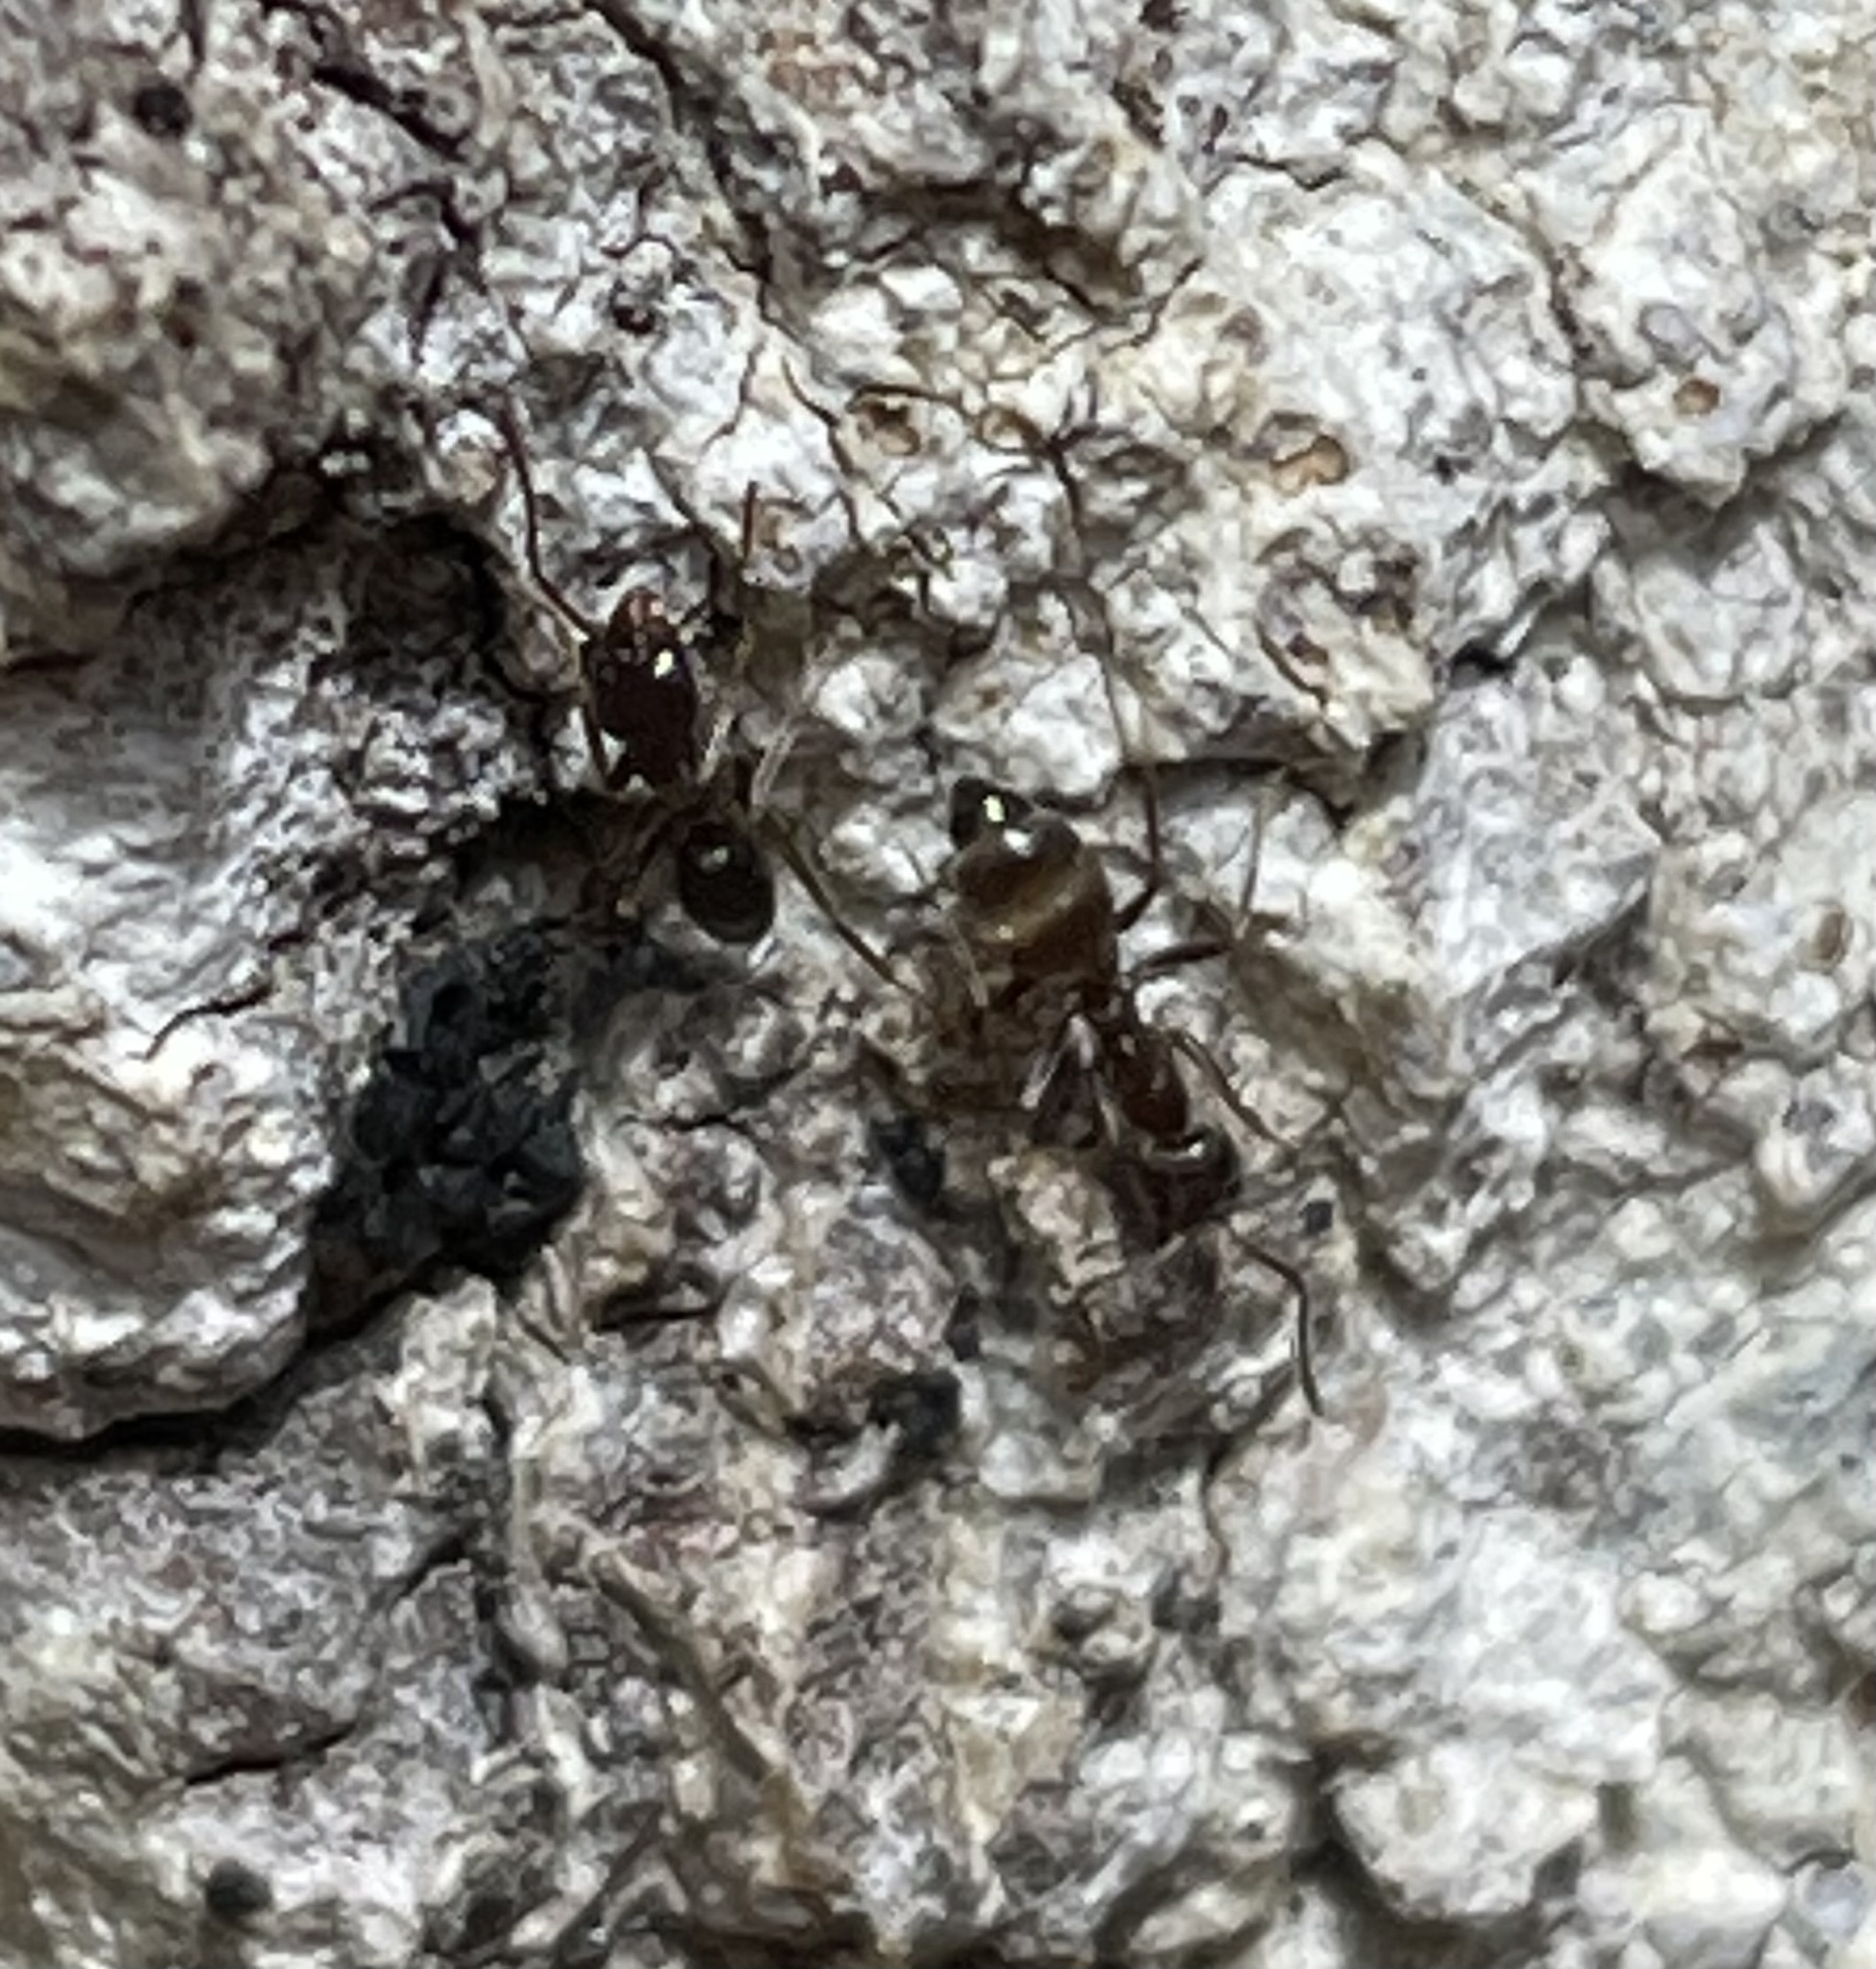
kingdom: Animalia
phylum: Arthropoda
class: Insecta
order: Hymenoptera
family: Formicidae
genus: Linepithema
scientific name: Linepithema humile
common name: Argentine ant
